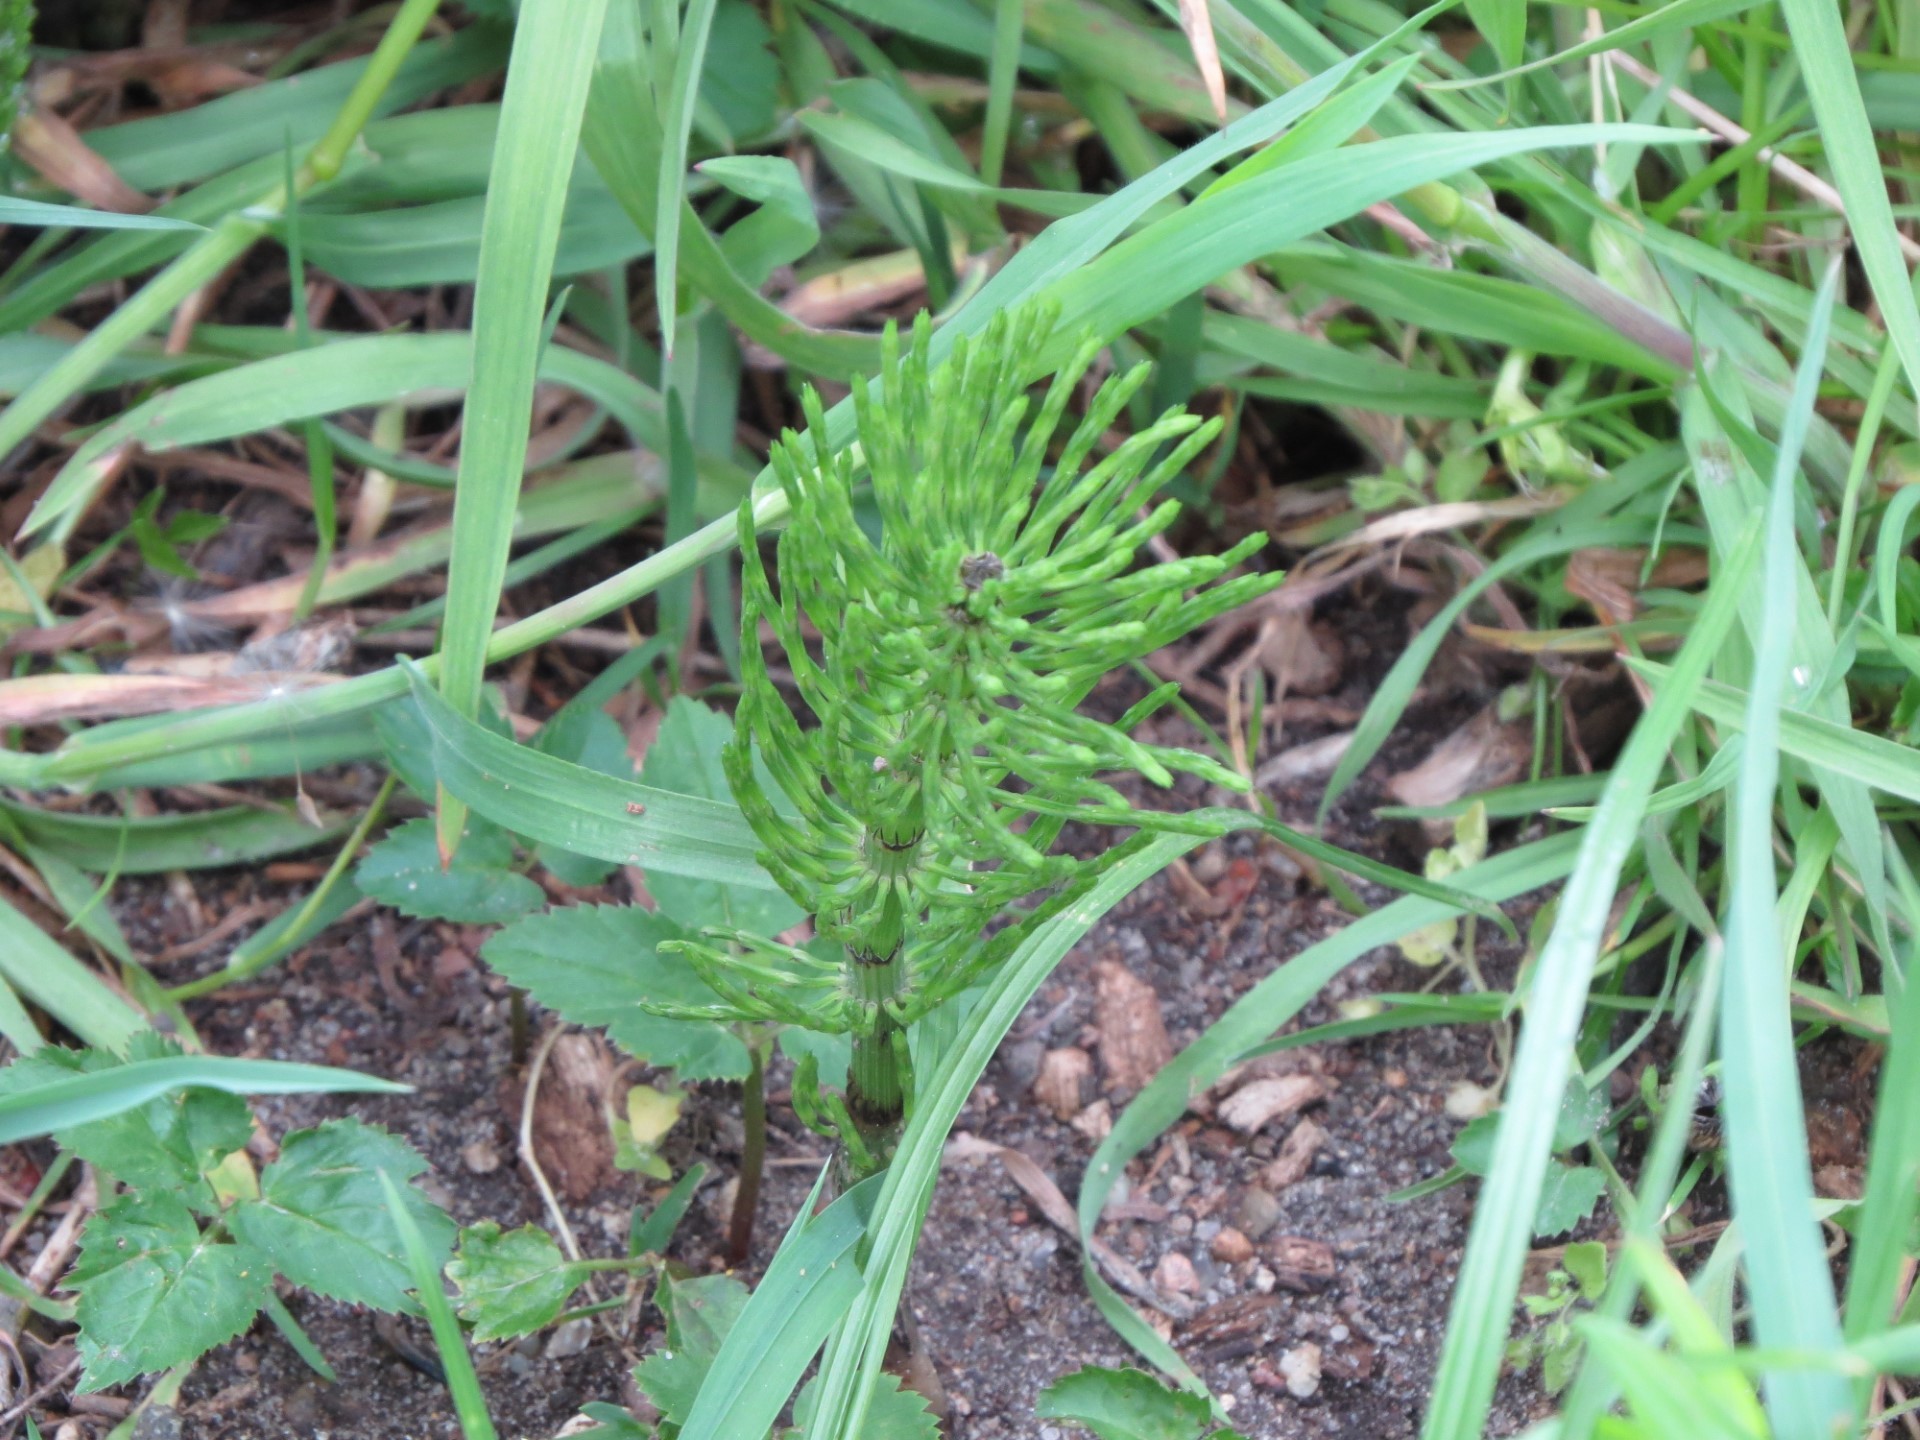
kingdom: Plantae
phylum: Tracheophyta
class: Polypodiopsida
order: Equisetales
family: Equisetaceae
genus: Equisetum
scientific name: Equisetum arvense
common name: Field horsetail
